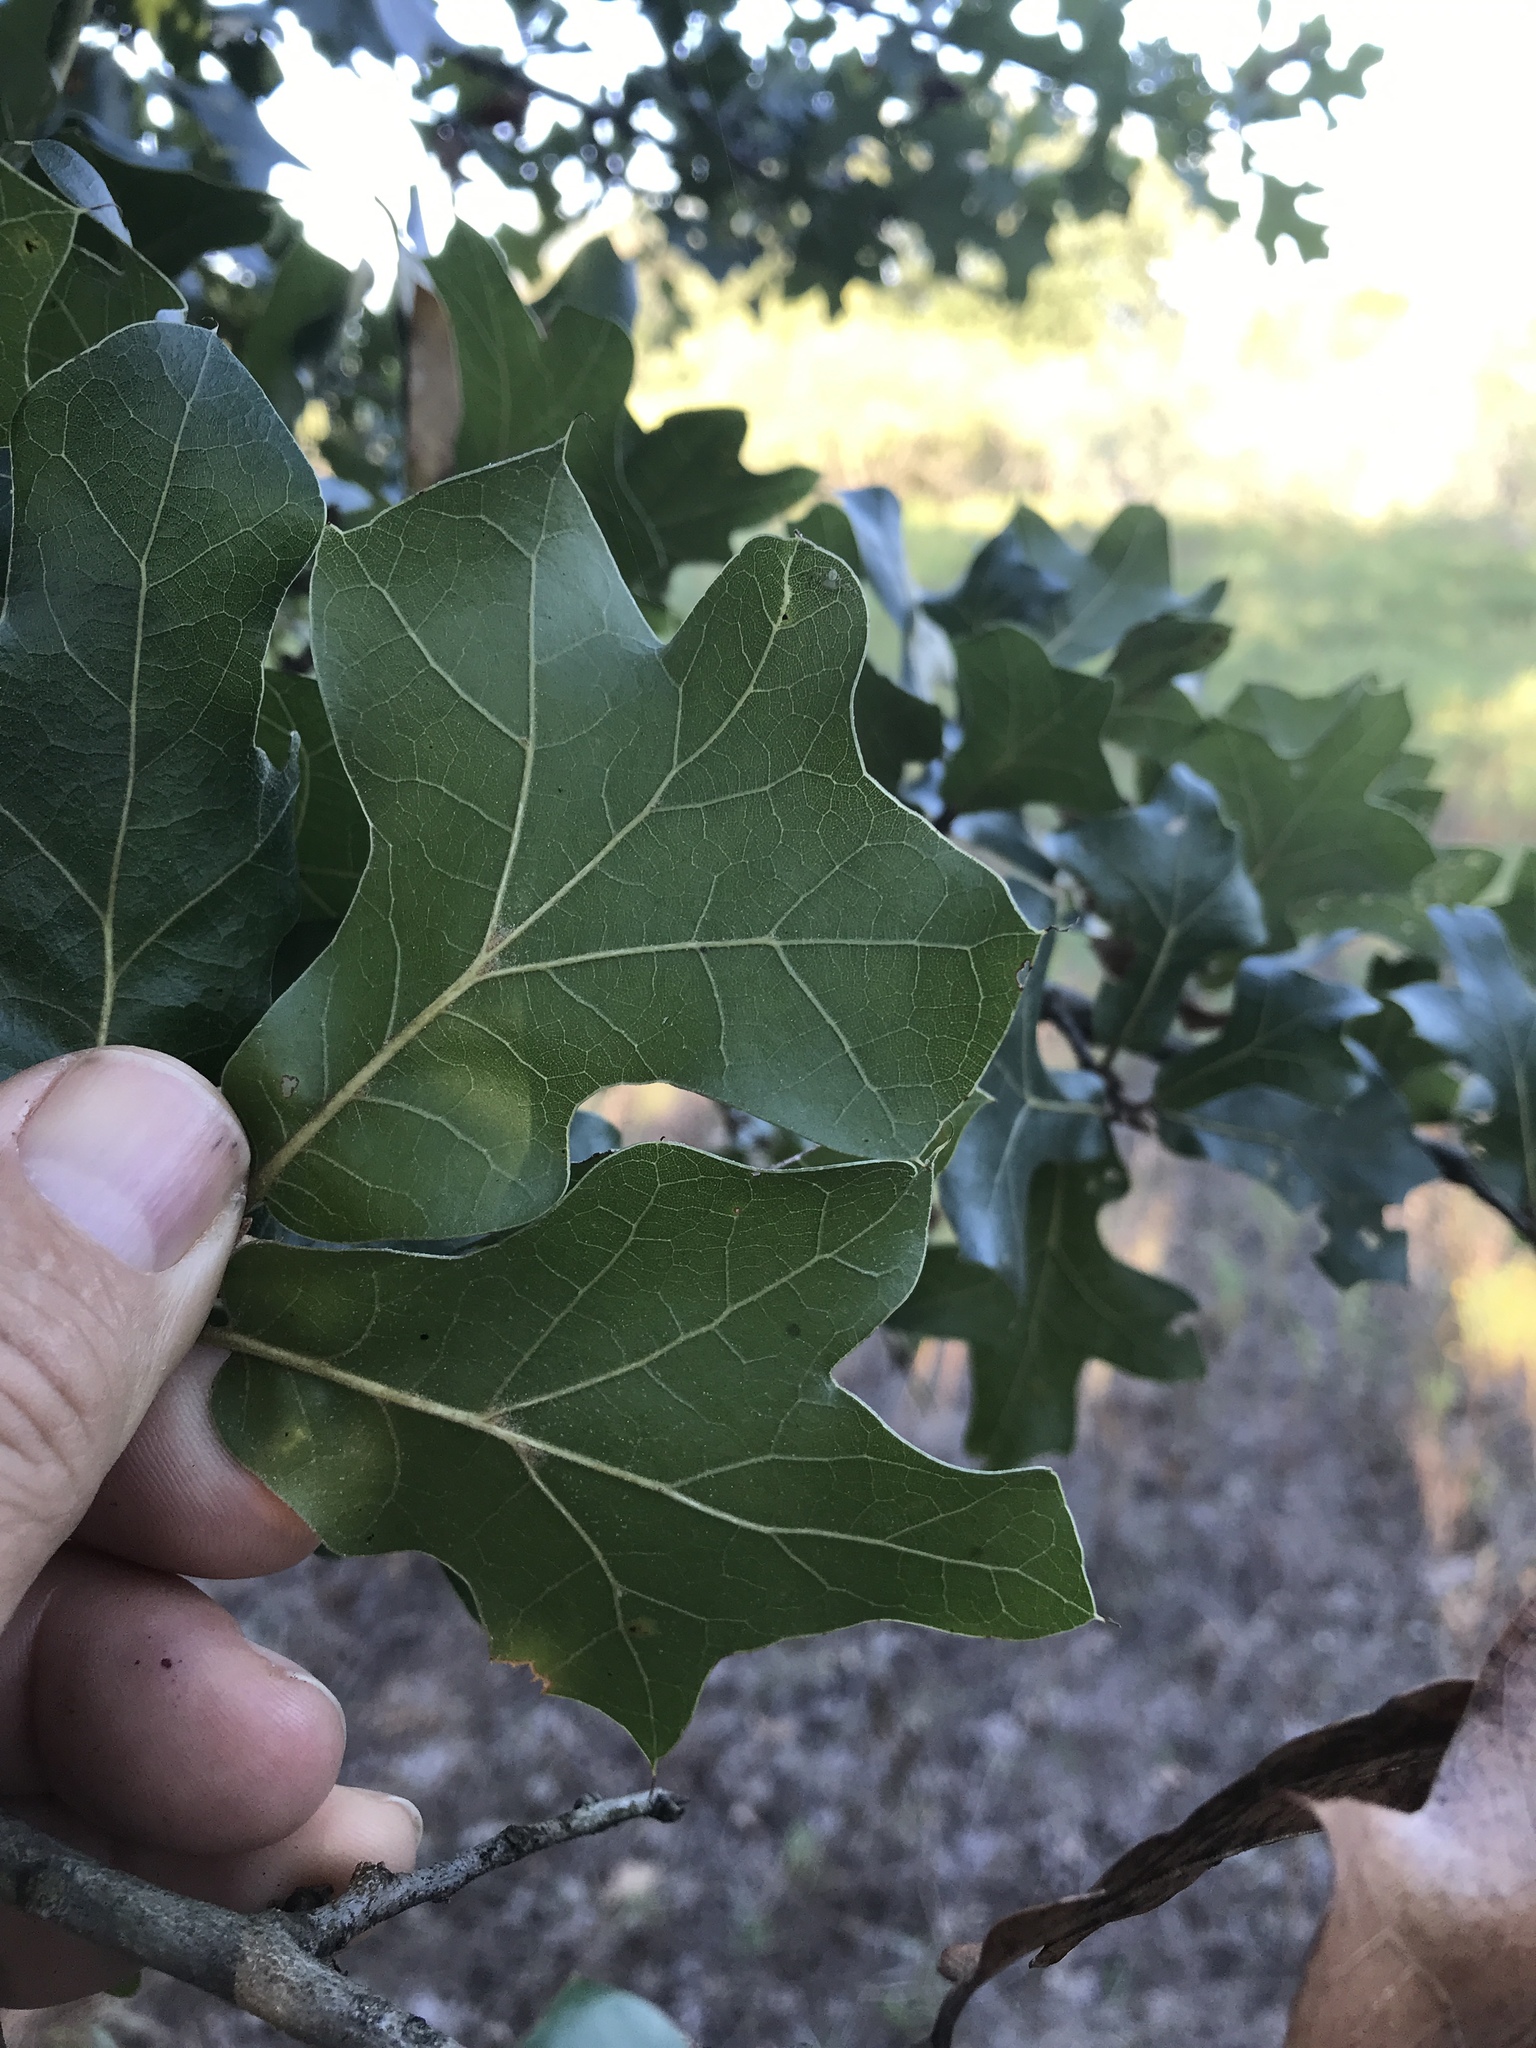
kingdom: Plantae
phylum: Tracheophyta
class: Magnoliopsida
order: Fagales
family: Fagaceae
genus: Quercus
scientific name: Quercus marilandica
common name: Blackjack oak
